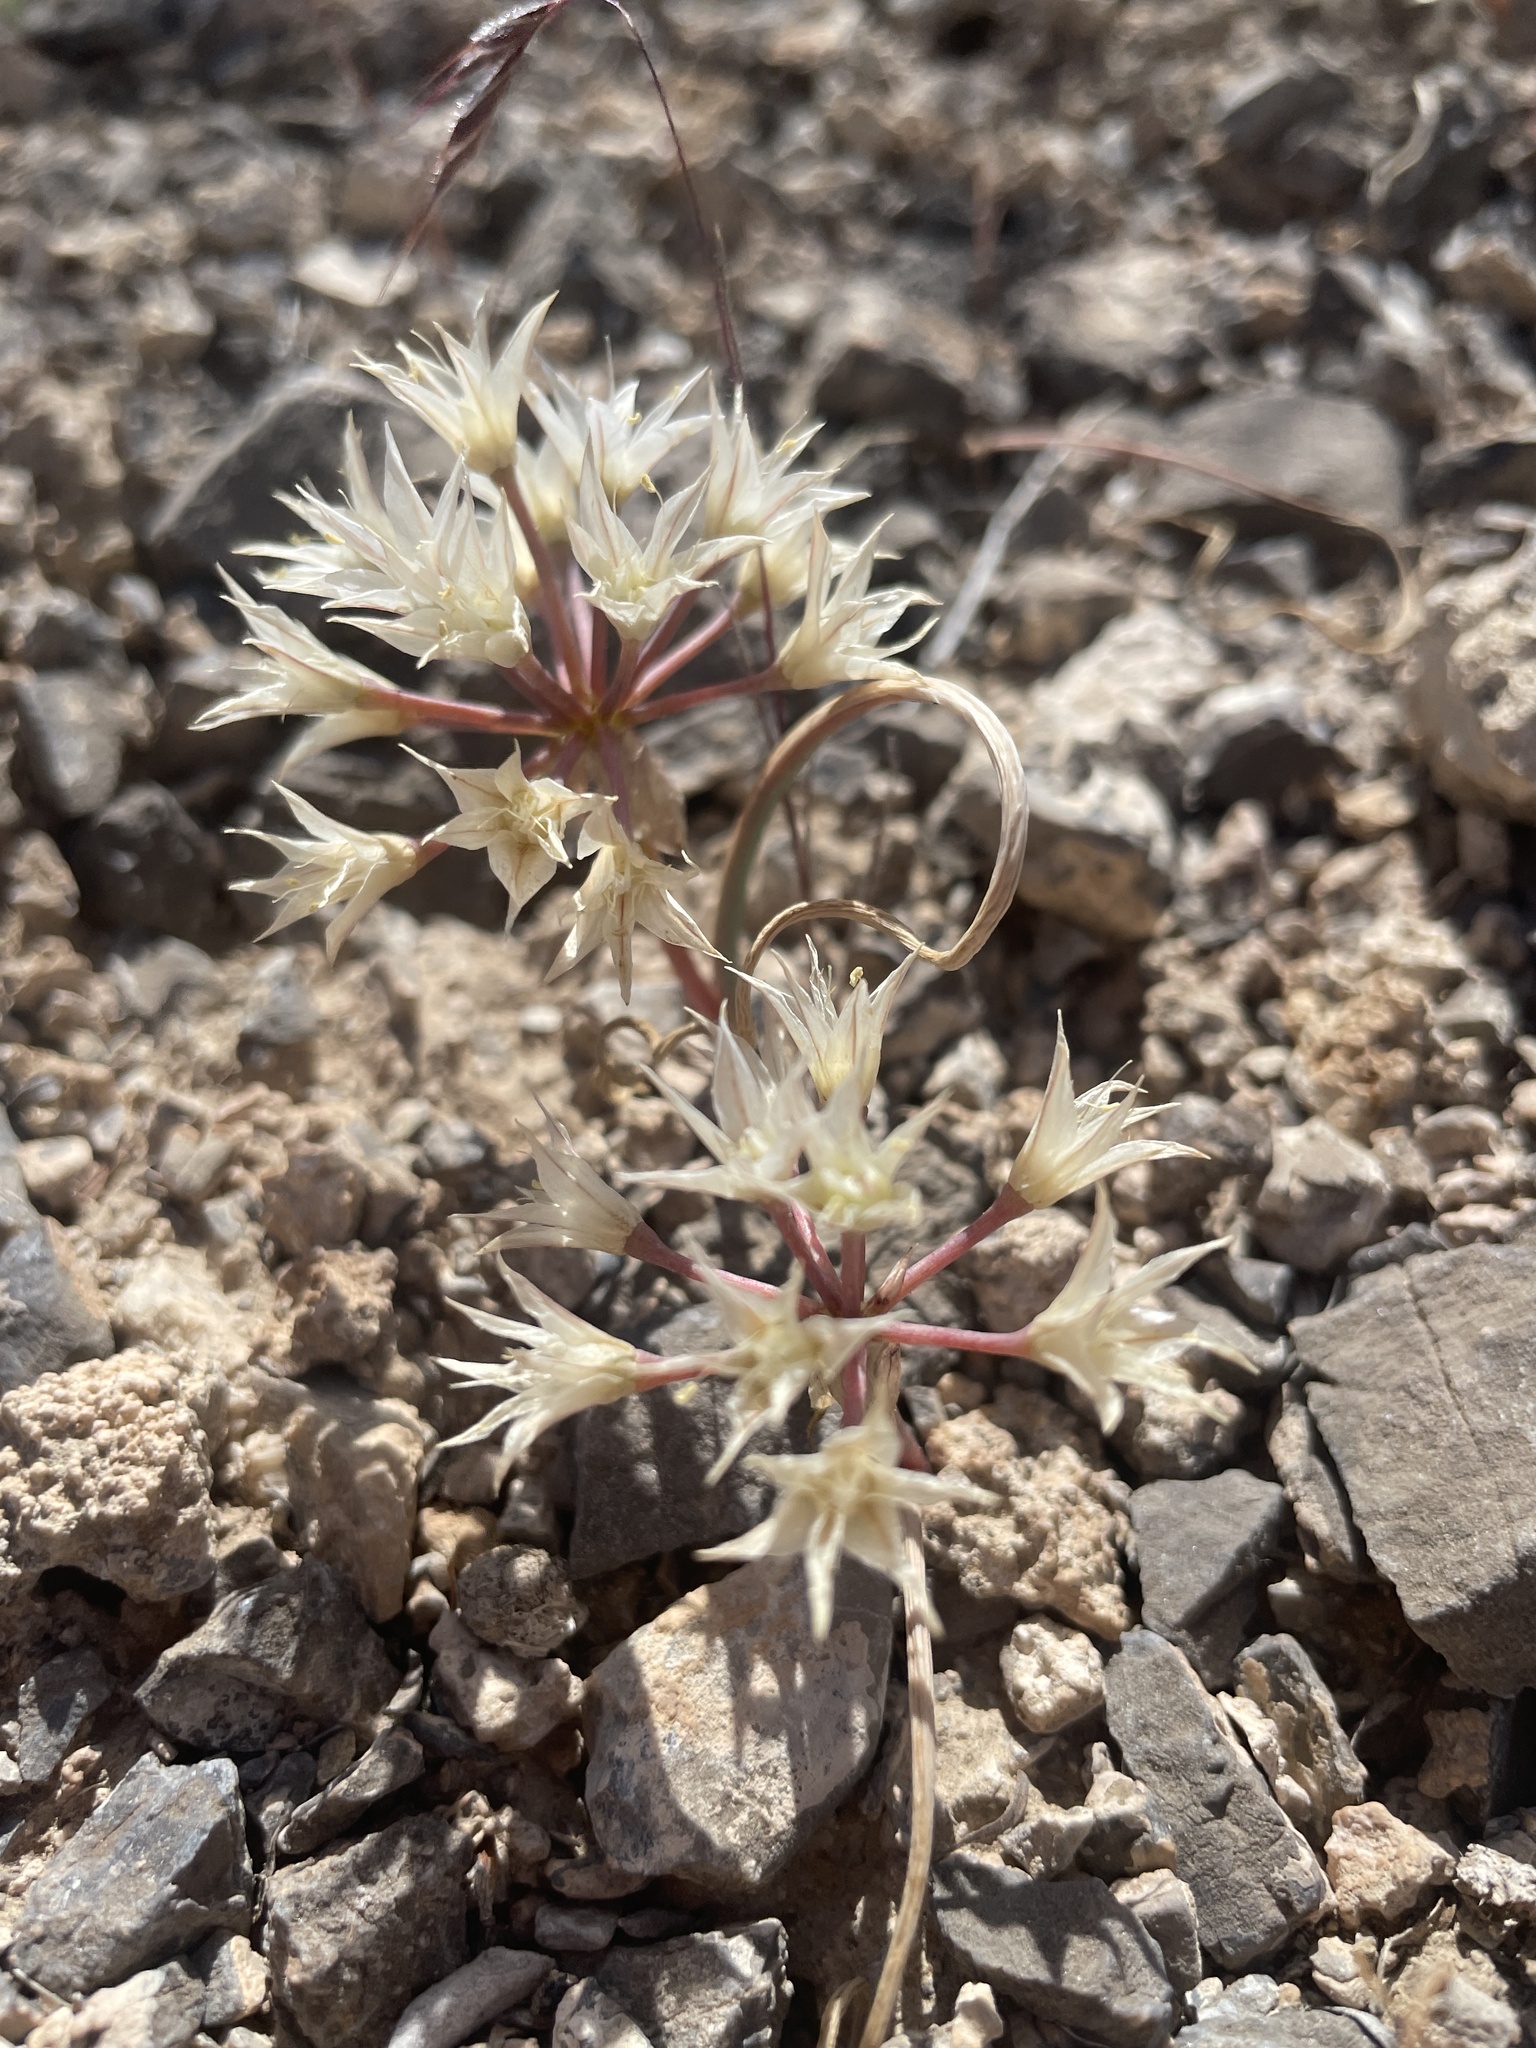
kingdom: Plantae
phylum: Tracheophyta
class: Liliopsida
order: Asparagales
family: Amaryllidaceae
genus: Allium
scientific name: Allium nevadense
